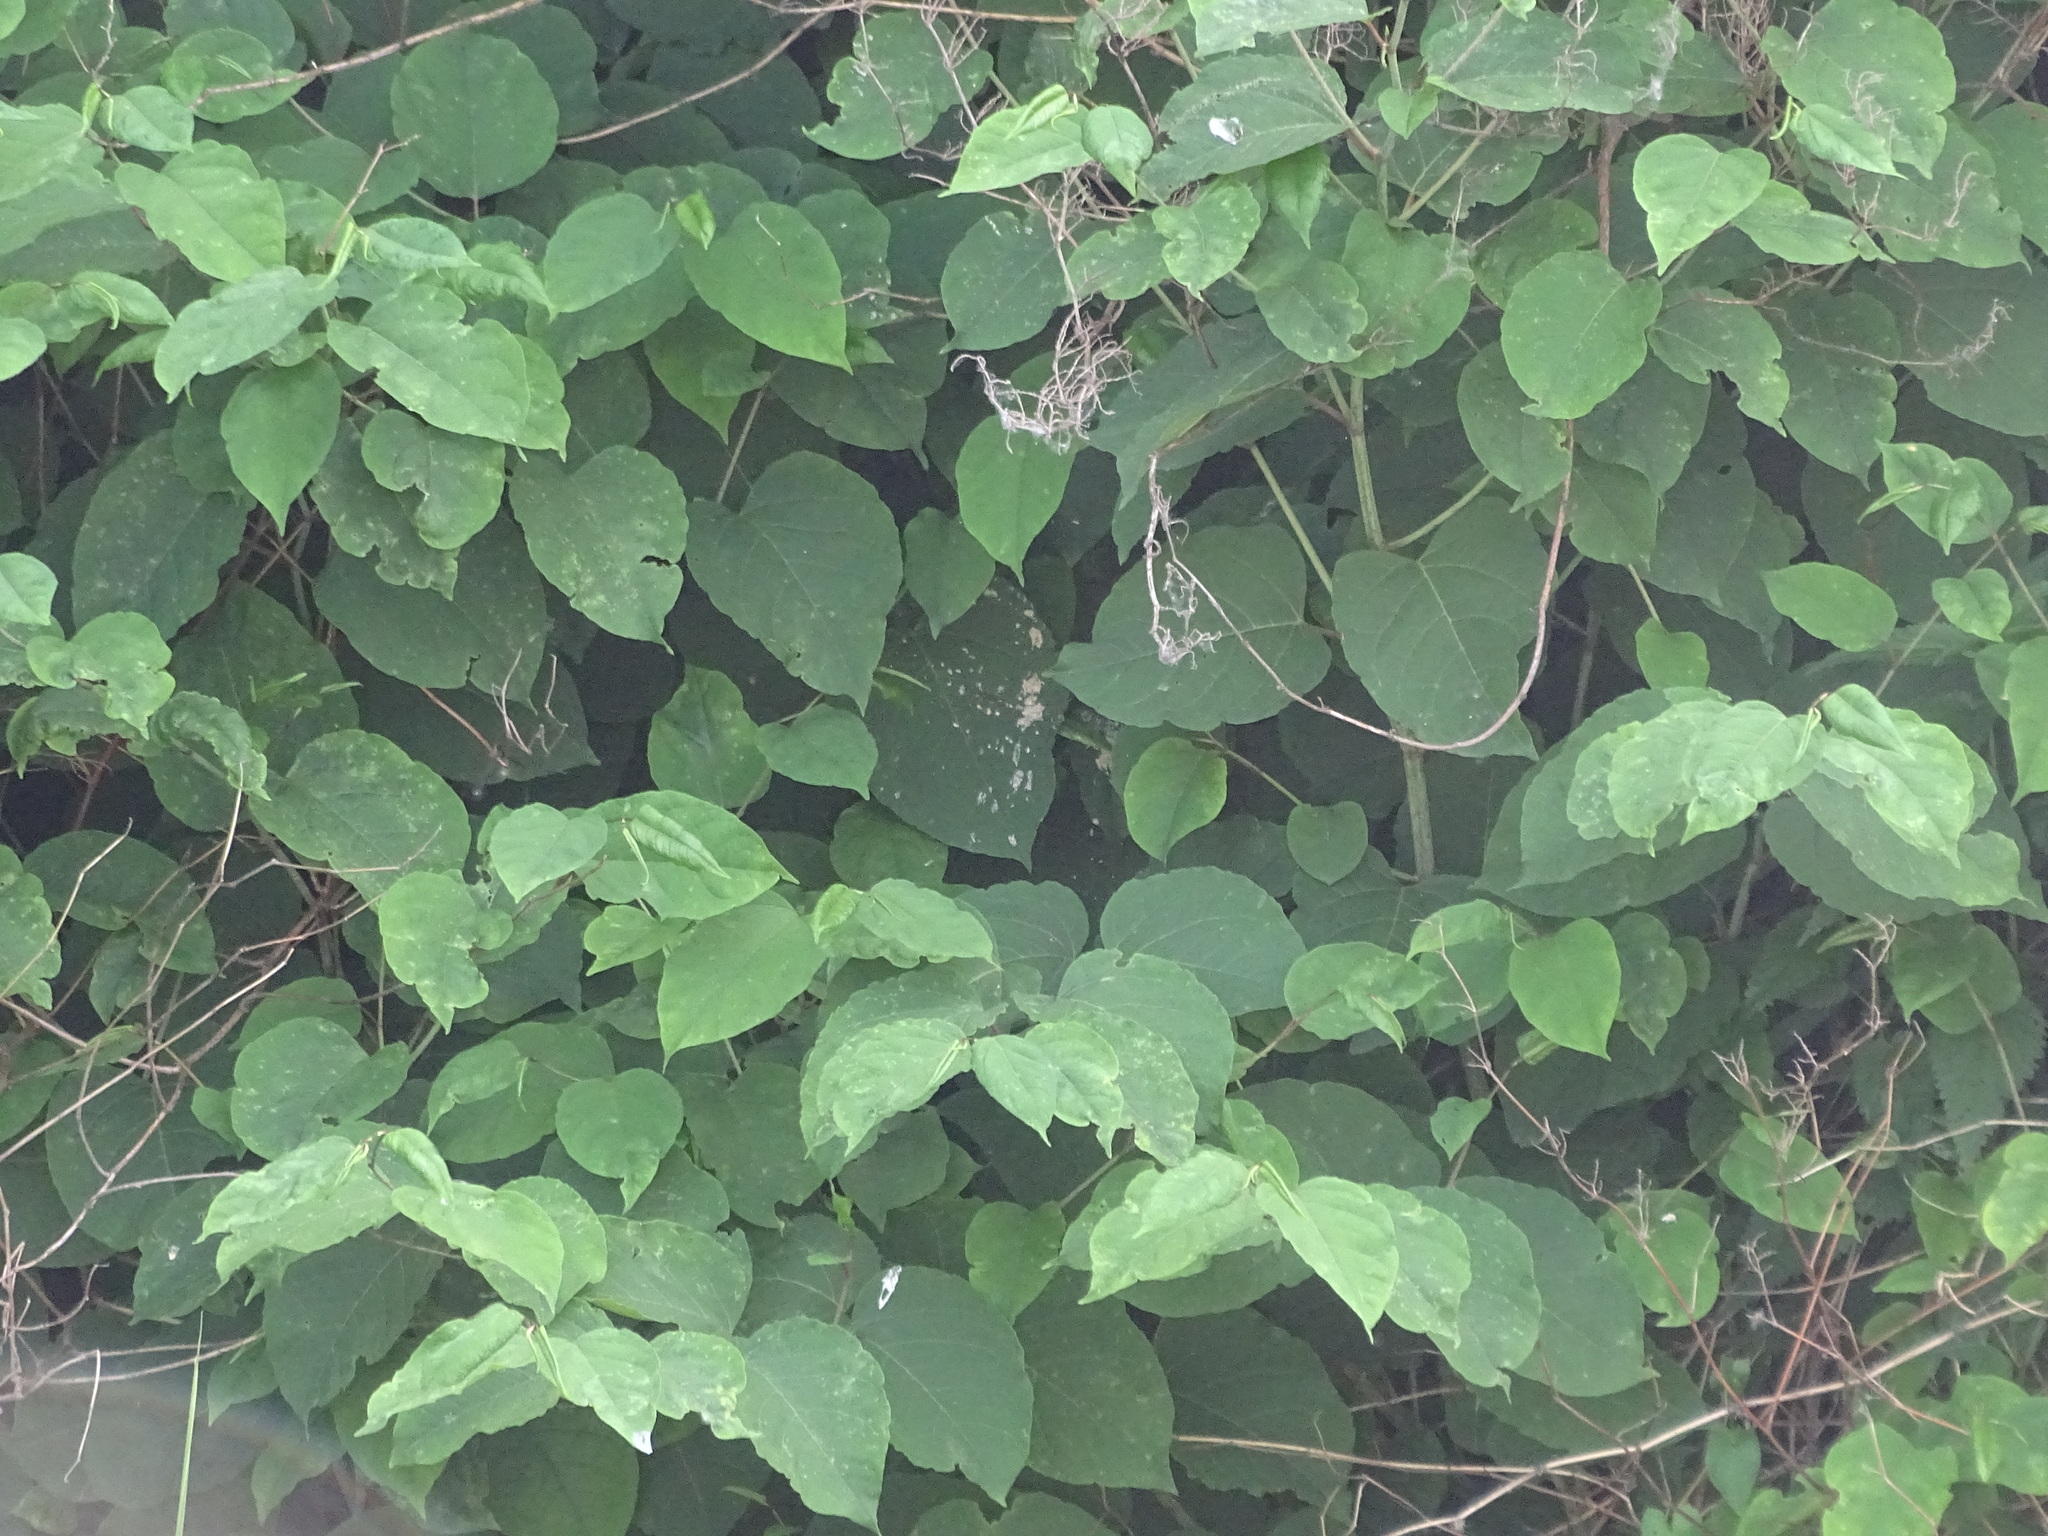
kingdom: Plantae
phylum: Tracheophyta
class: Magnoliopsida
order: Caryophyllales
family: Polygonaceae
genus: Reynoutria
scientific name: Reynoutria bohemica
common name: Bohemian knotweed
